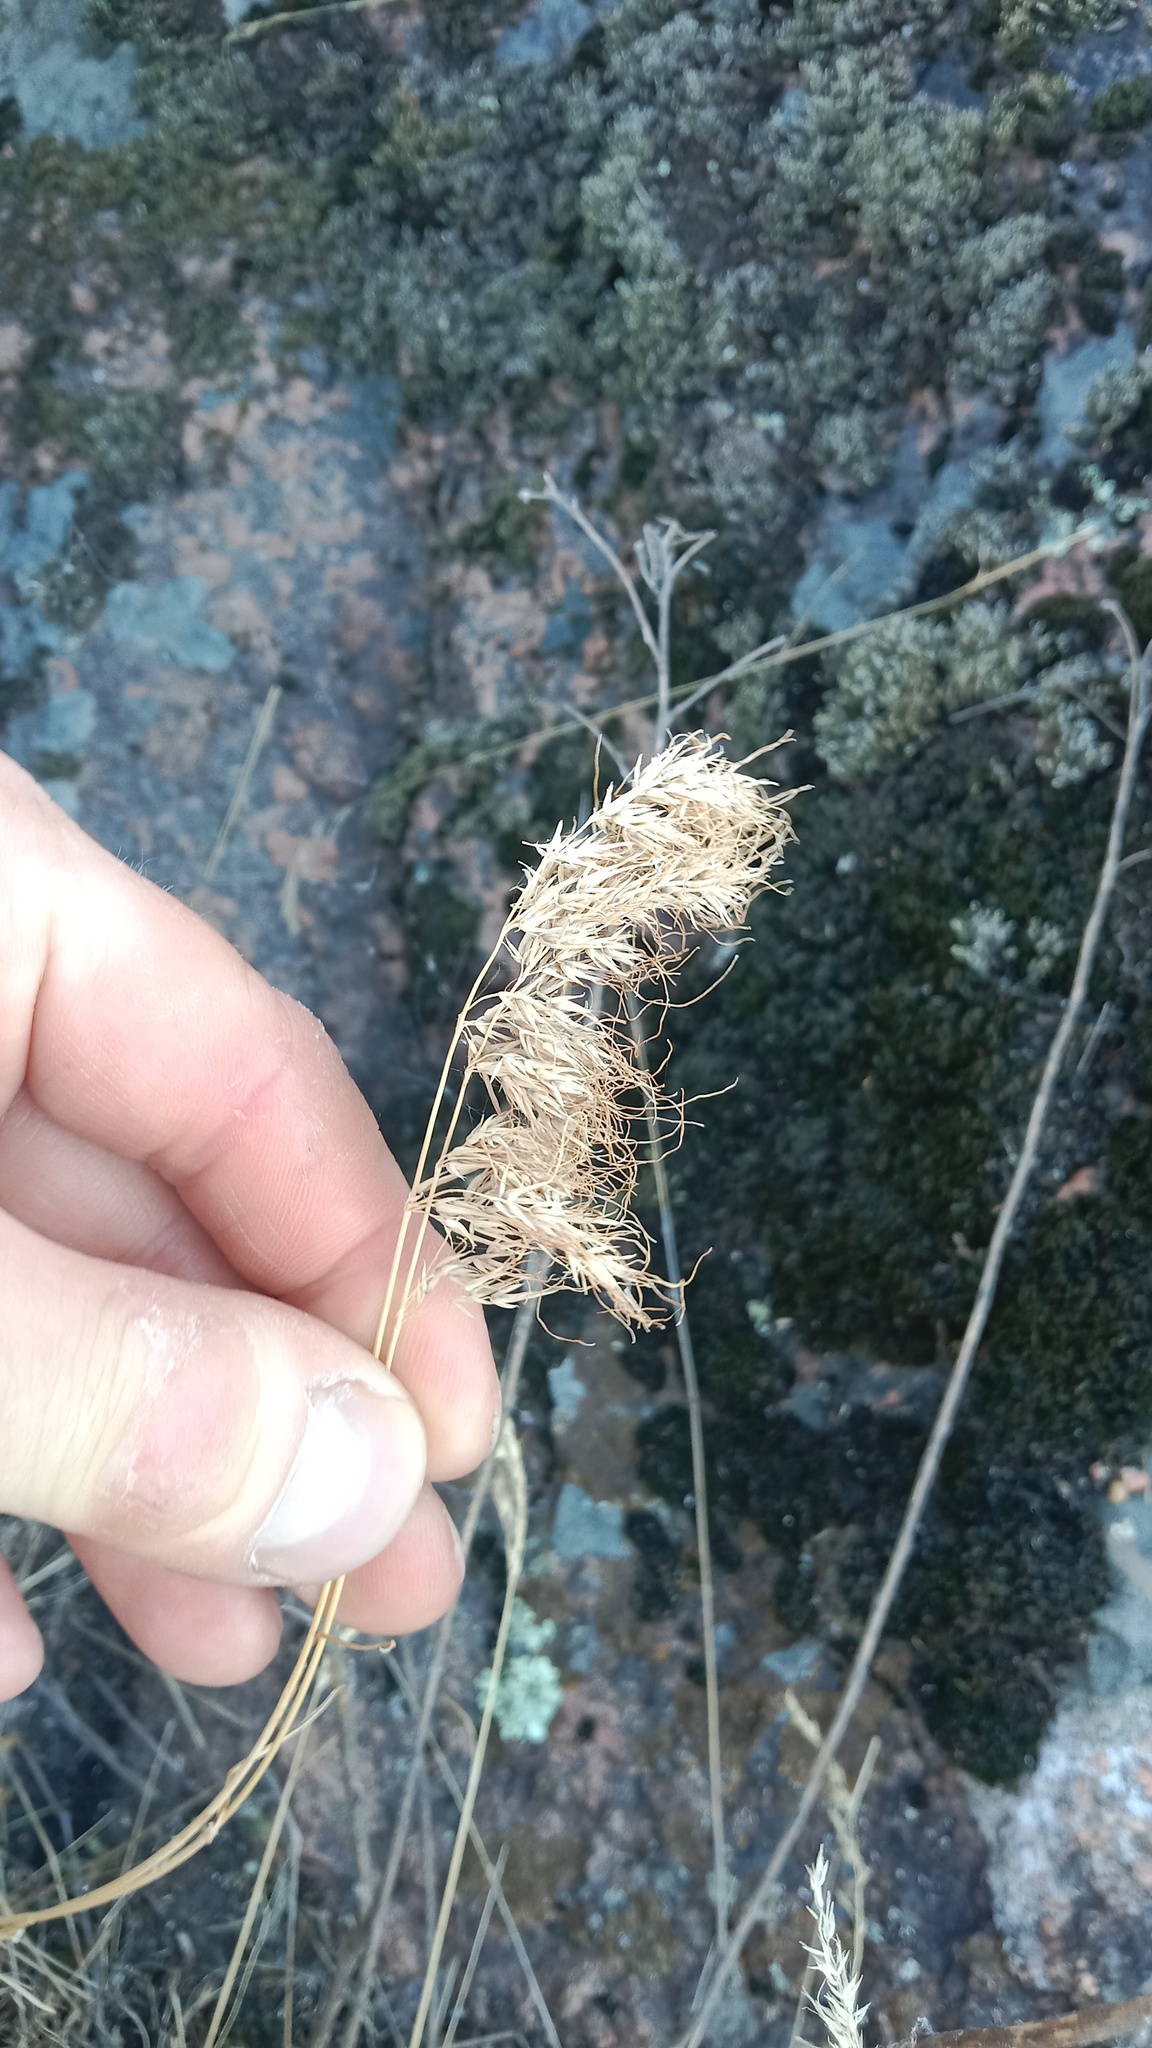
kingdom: Plantae
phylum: Tracheophyta
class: Liliopsida
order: Poales
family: Poaceae
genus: Poa
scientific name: Poa bulbosa
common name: Bulbous bluegrass
